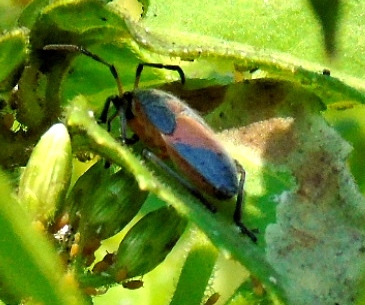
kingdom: Animalia
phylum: Arthropoda
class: Insecta
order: Hemiptera
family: Largidae
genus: Largus
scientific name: Largus
